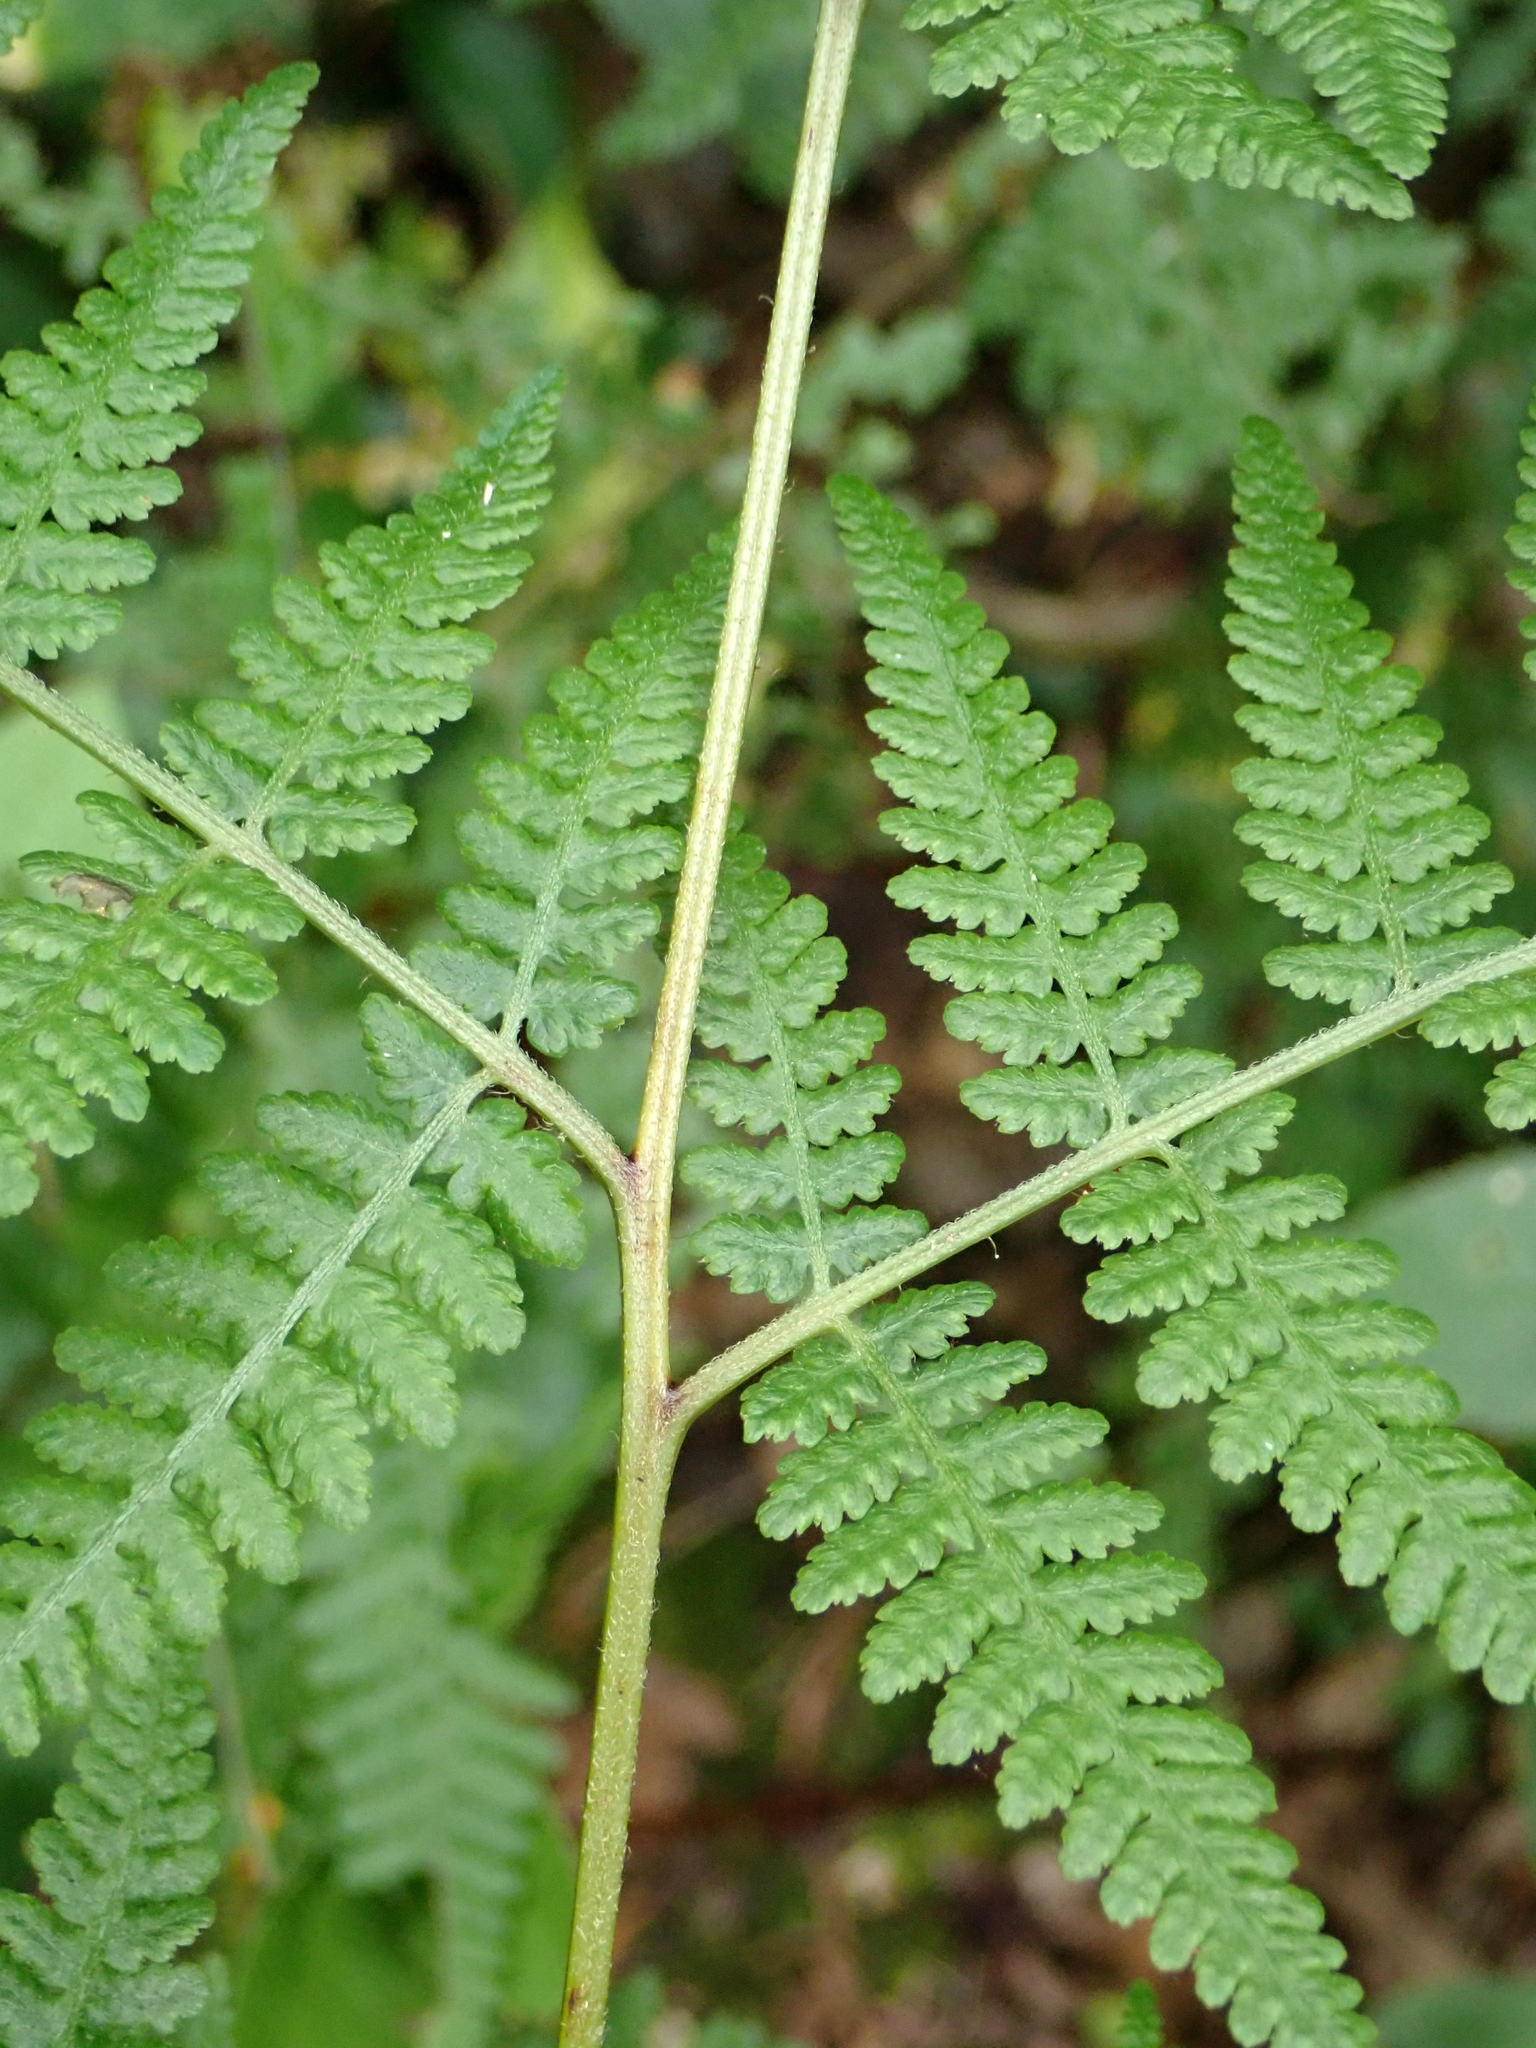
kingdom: Plantae
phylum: Tracheophyta
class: Polypodiopsida
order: Polypodiales
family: Dennstaedtiaceae
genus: Hypolepis
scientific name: Hypolepis ambigua
